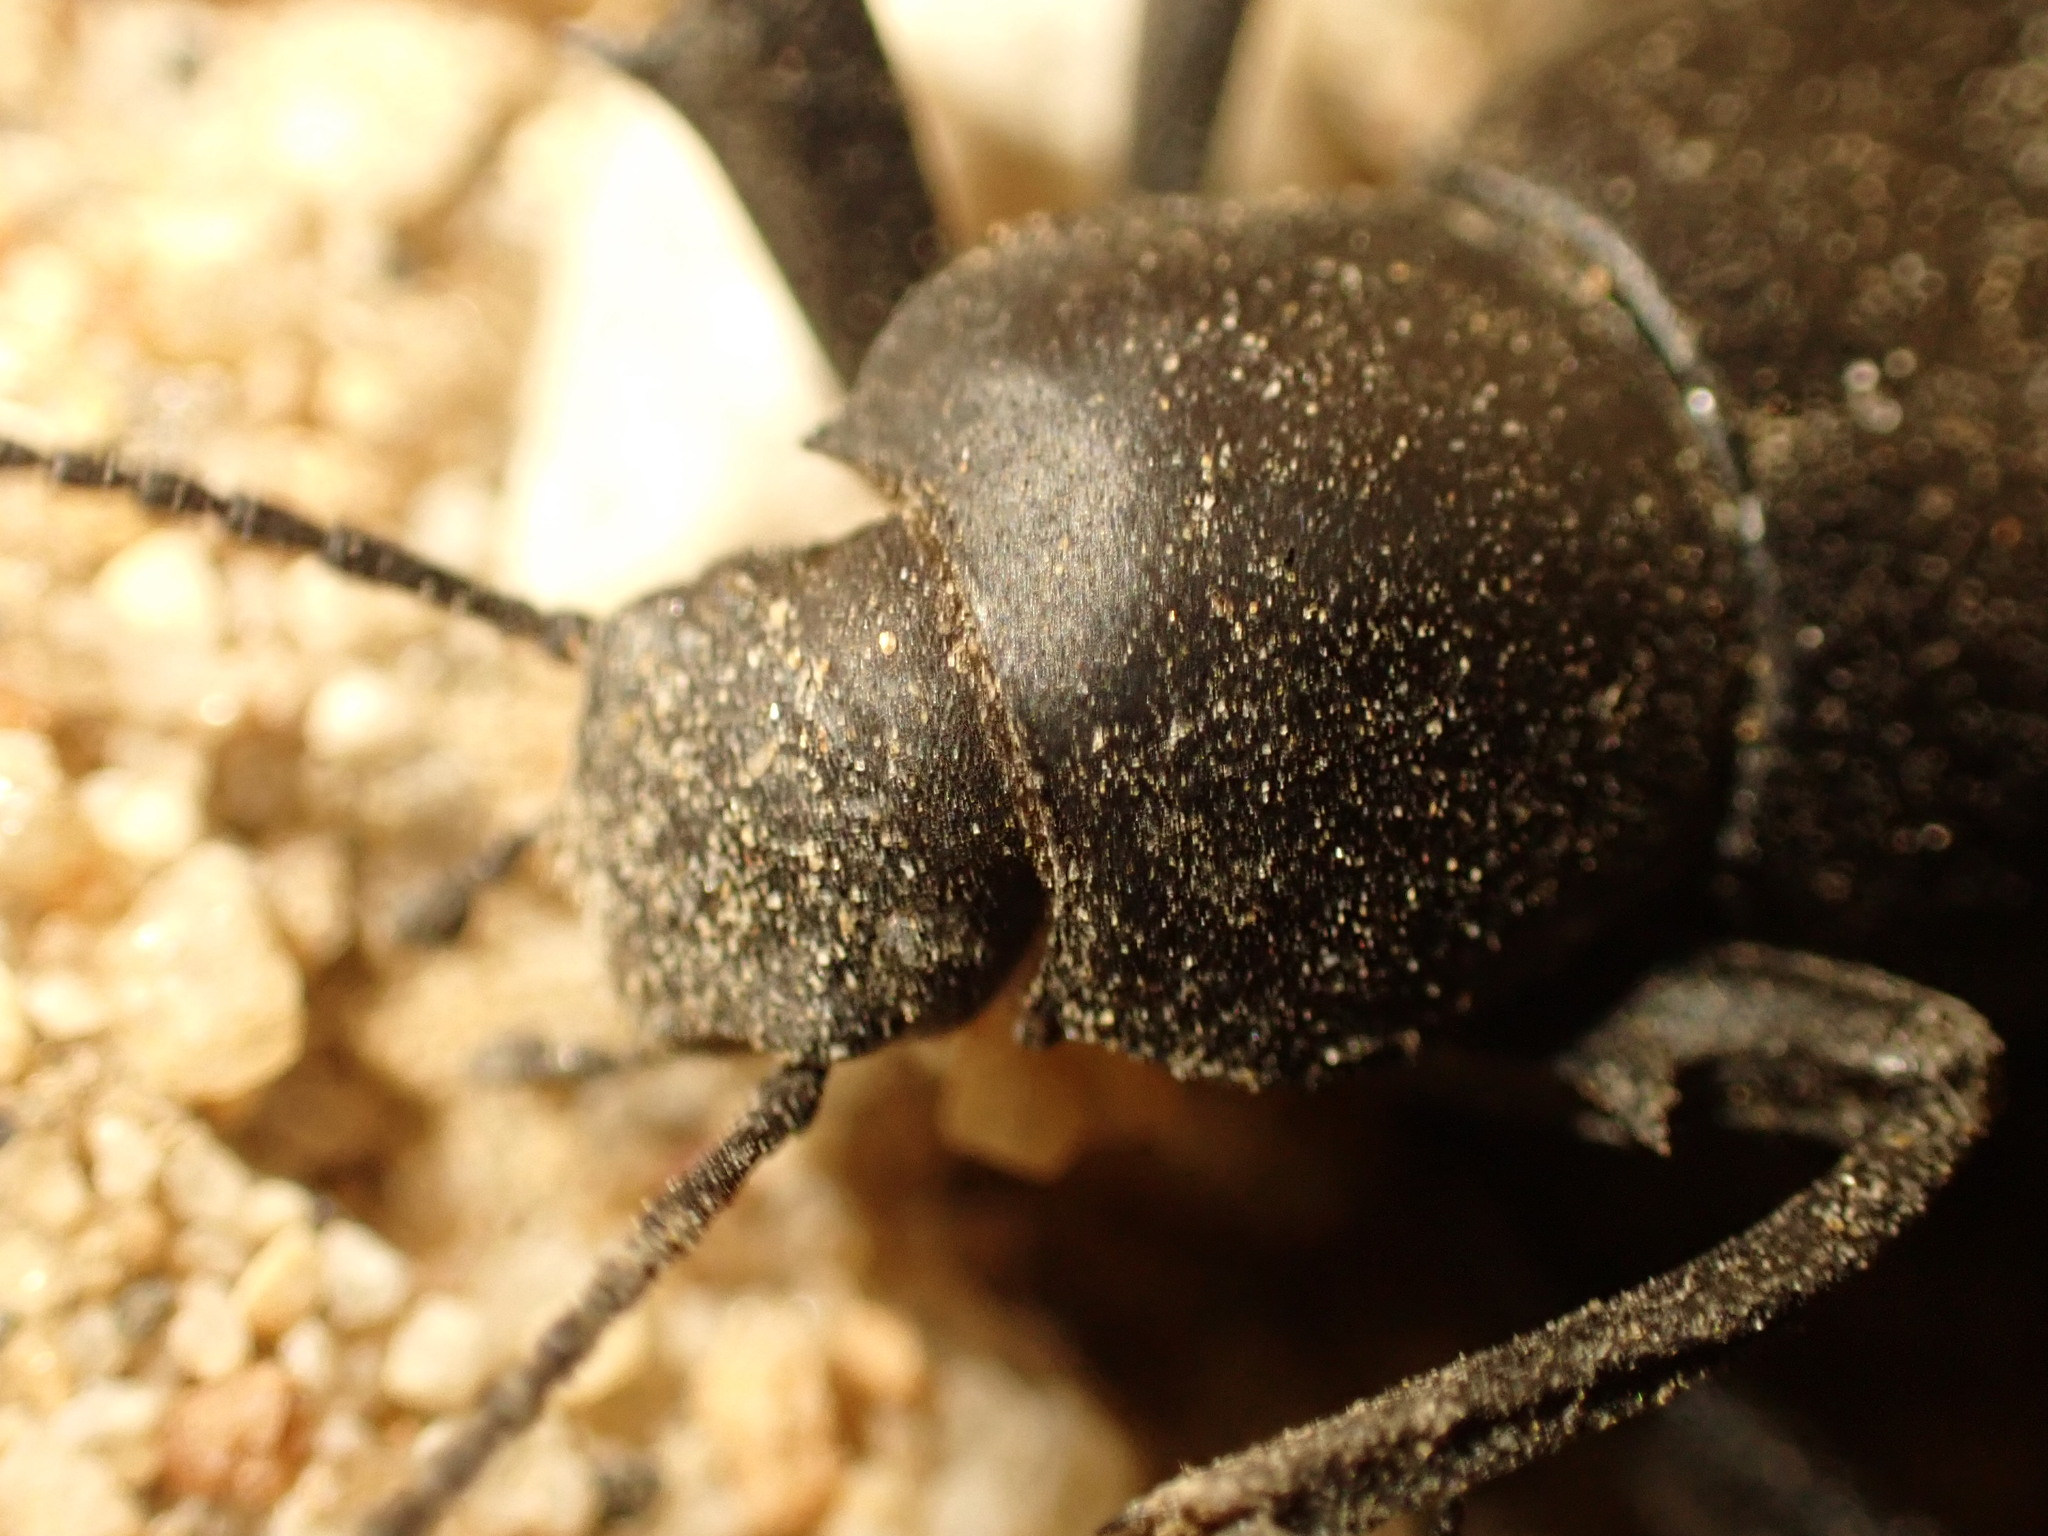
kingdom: Animalia
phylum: Arthropoda
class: Insecta
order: Coleoptera
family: Tenebrionidae
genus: Eleodes
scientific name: Eleodes armata
